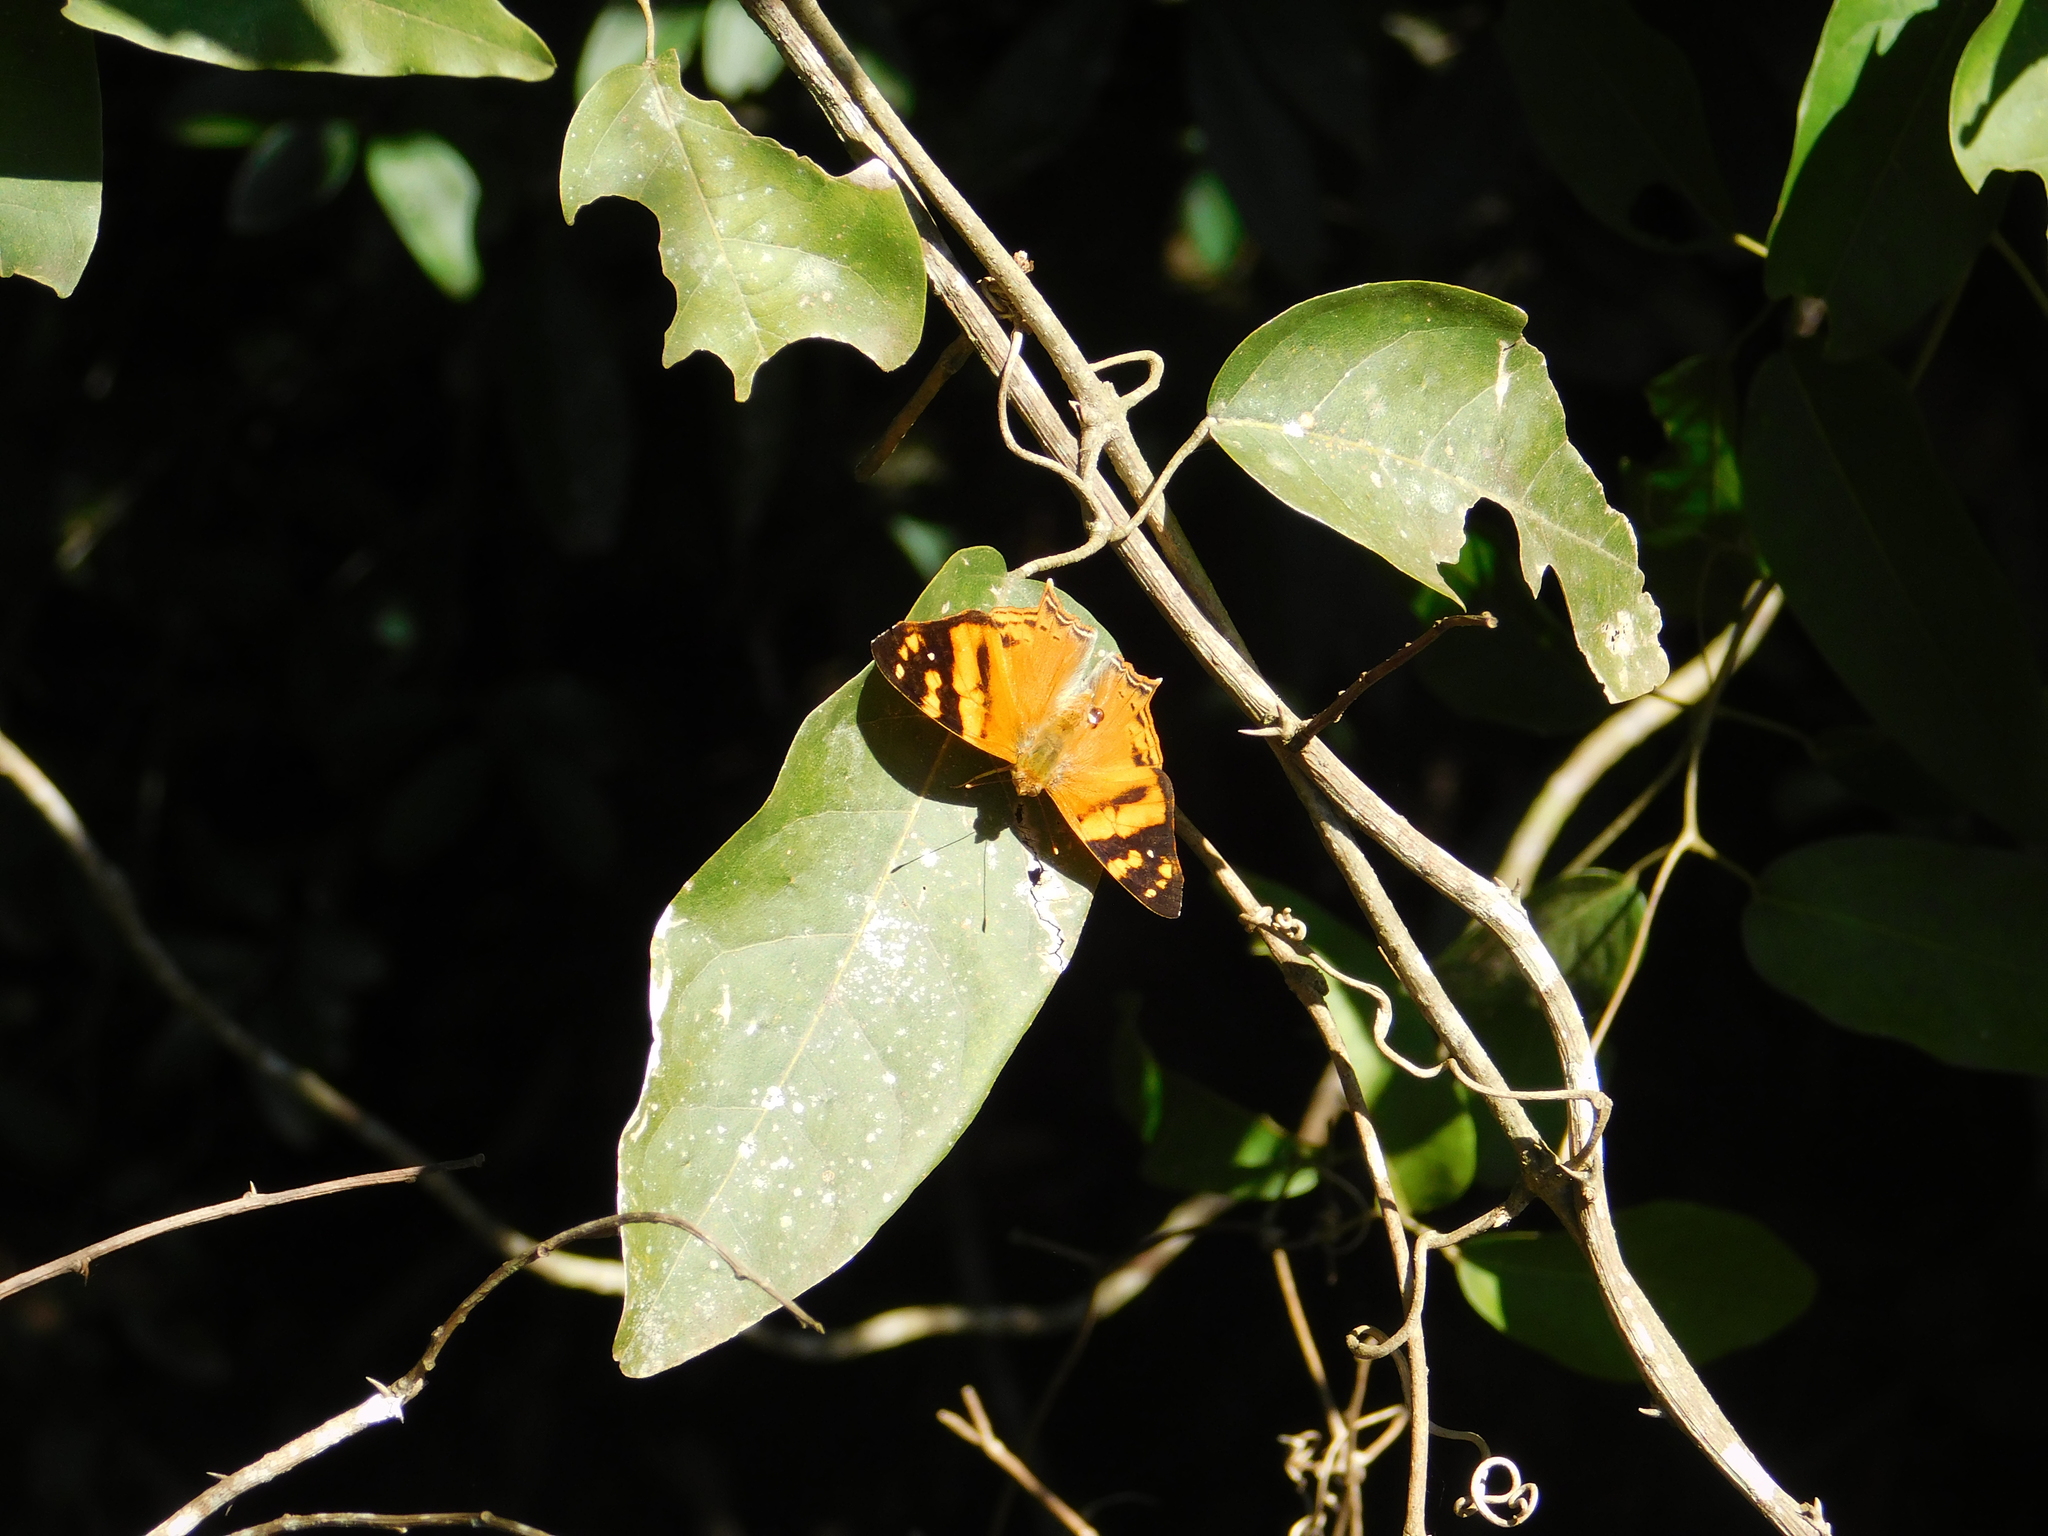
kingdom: Animalia
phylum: Arthropoda
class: Insecta
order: Lepidoptera
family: Nymphalidae
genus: Hypanartia
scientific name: Hypanartia lethe
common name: Orange mapwing
